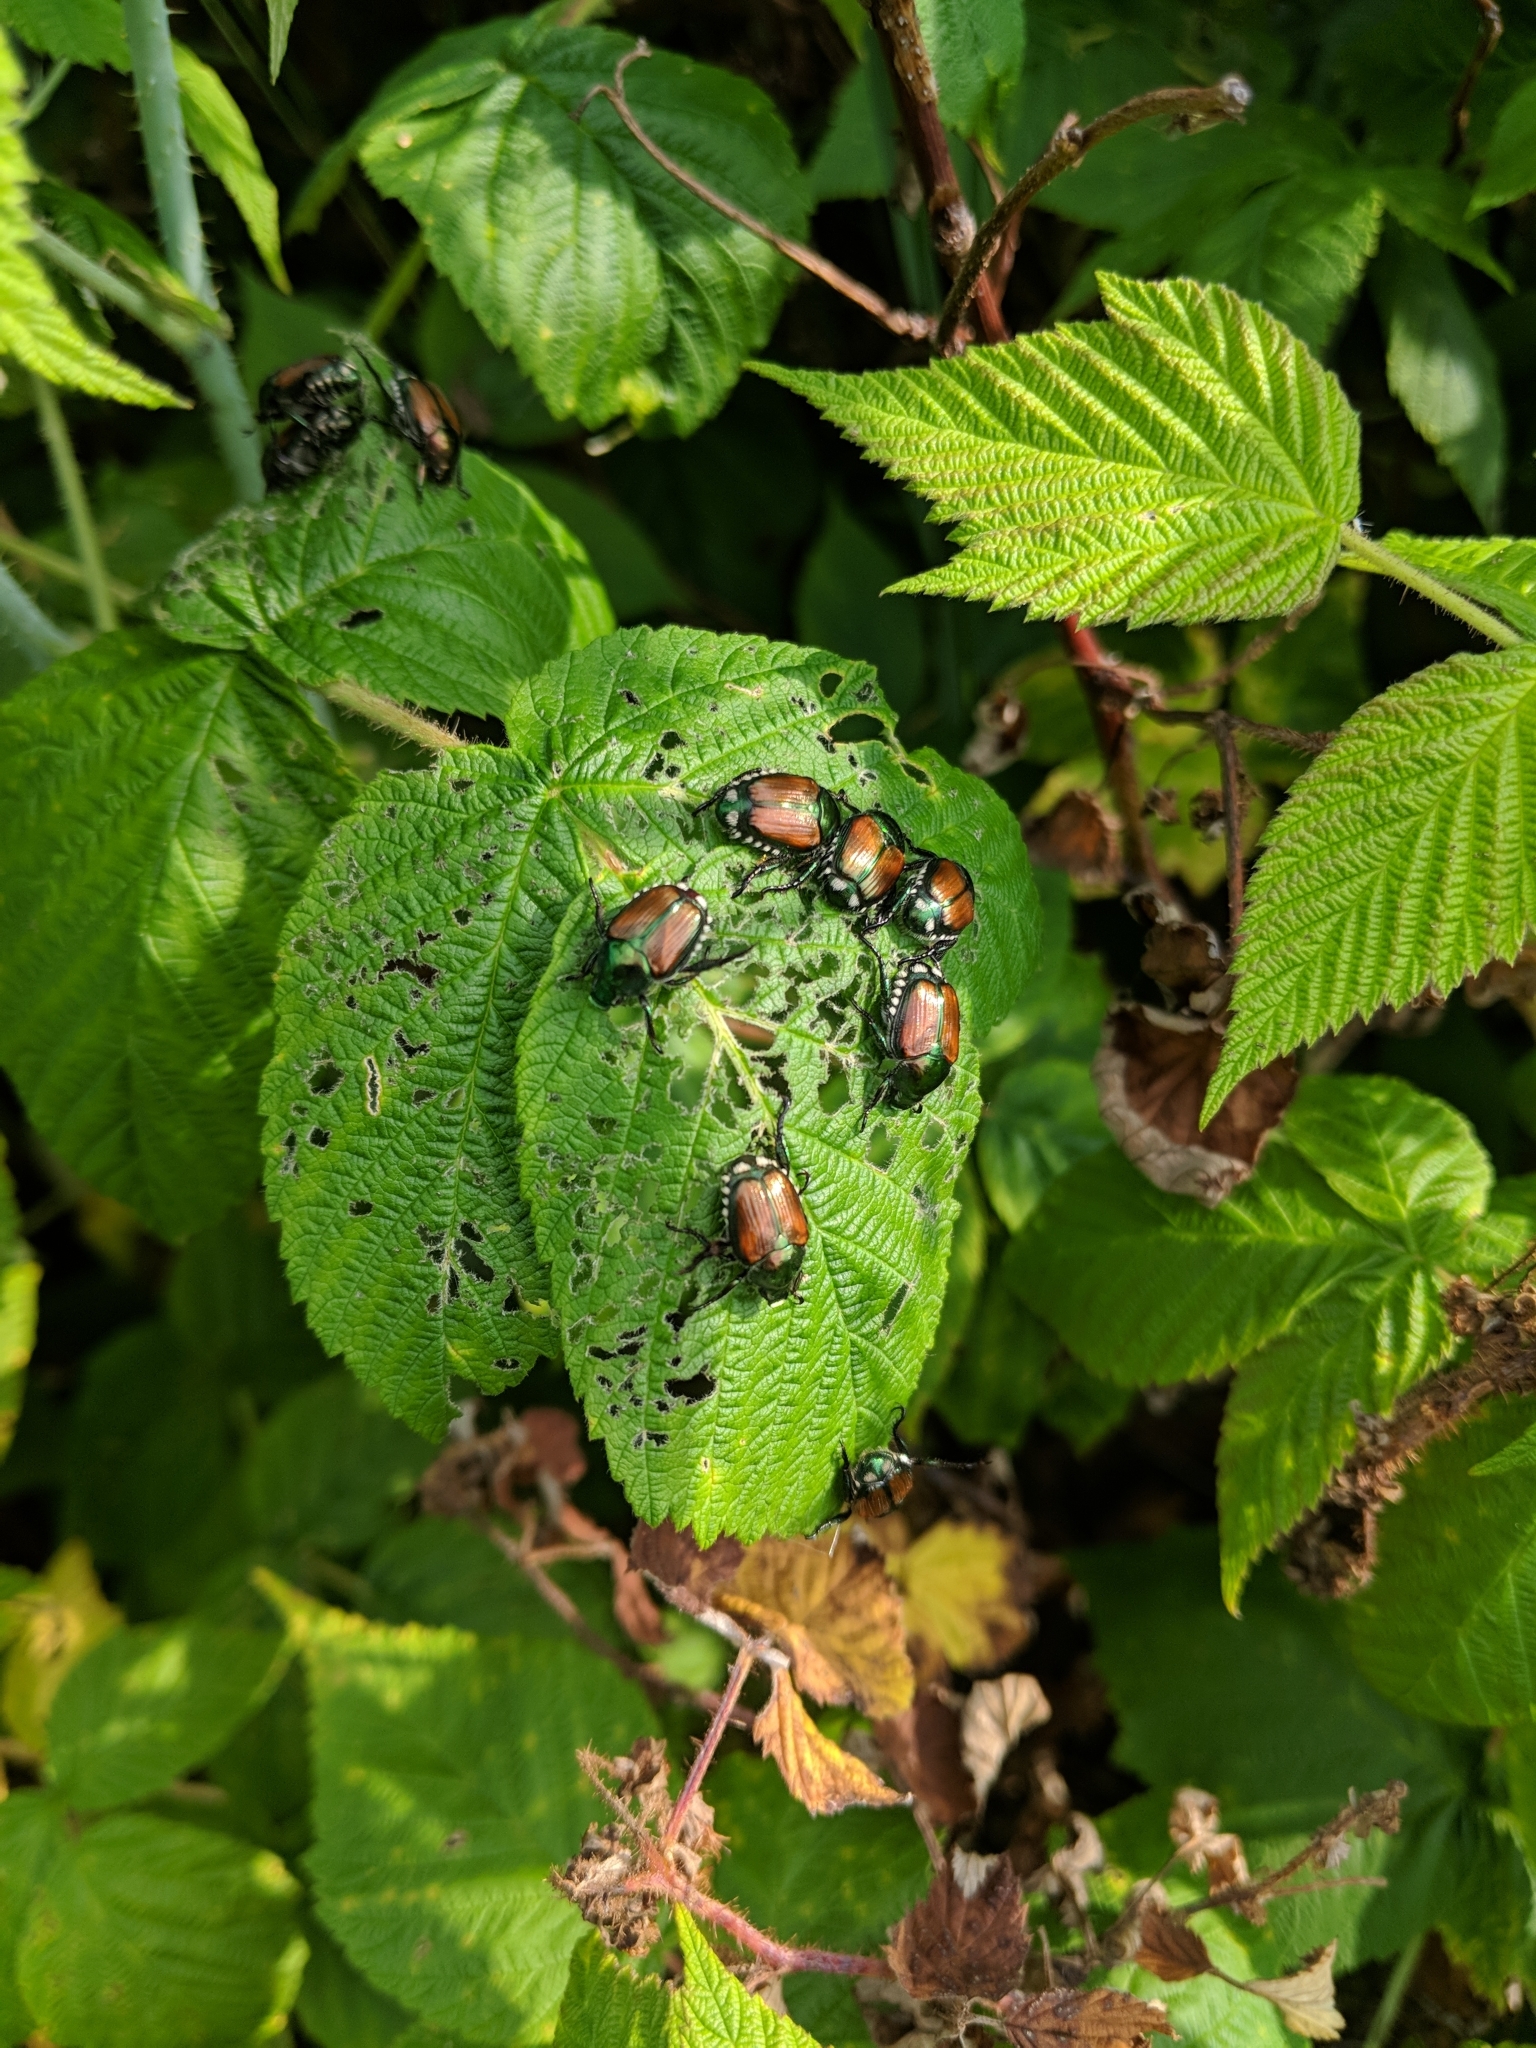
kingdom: Animalia
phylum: Arthropoda
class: Insecta
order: Coleoptera
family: Scarabaeidae
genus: Popillia
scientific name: Popillia japonica
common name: Japanese beetle
